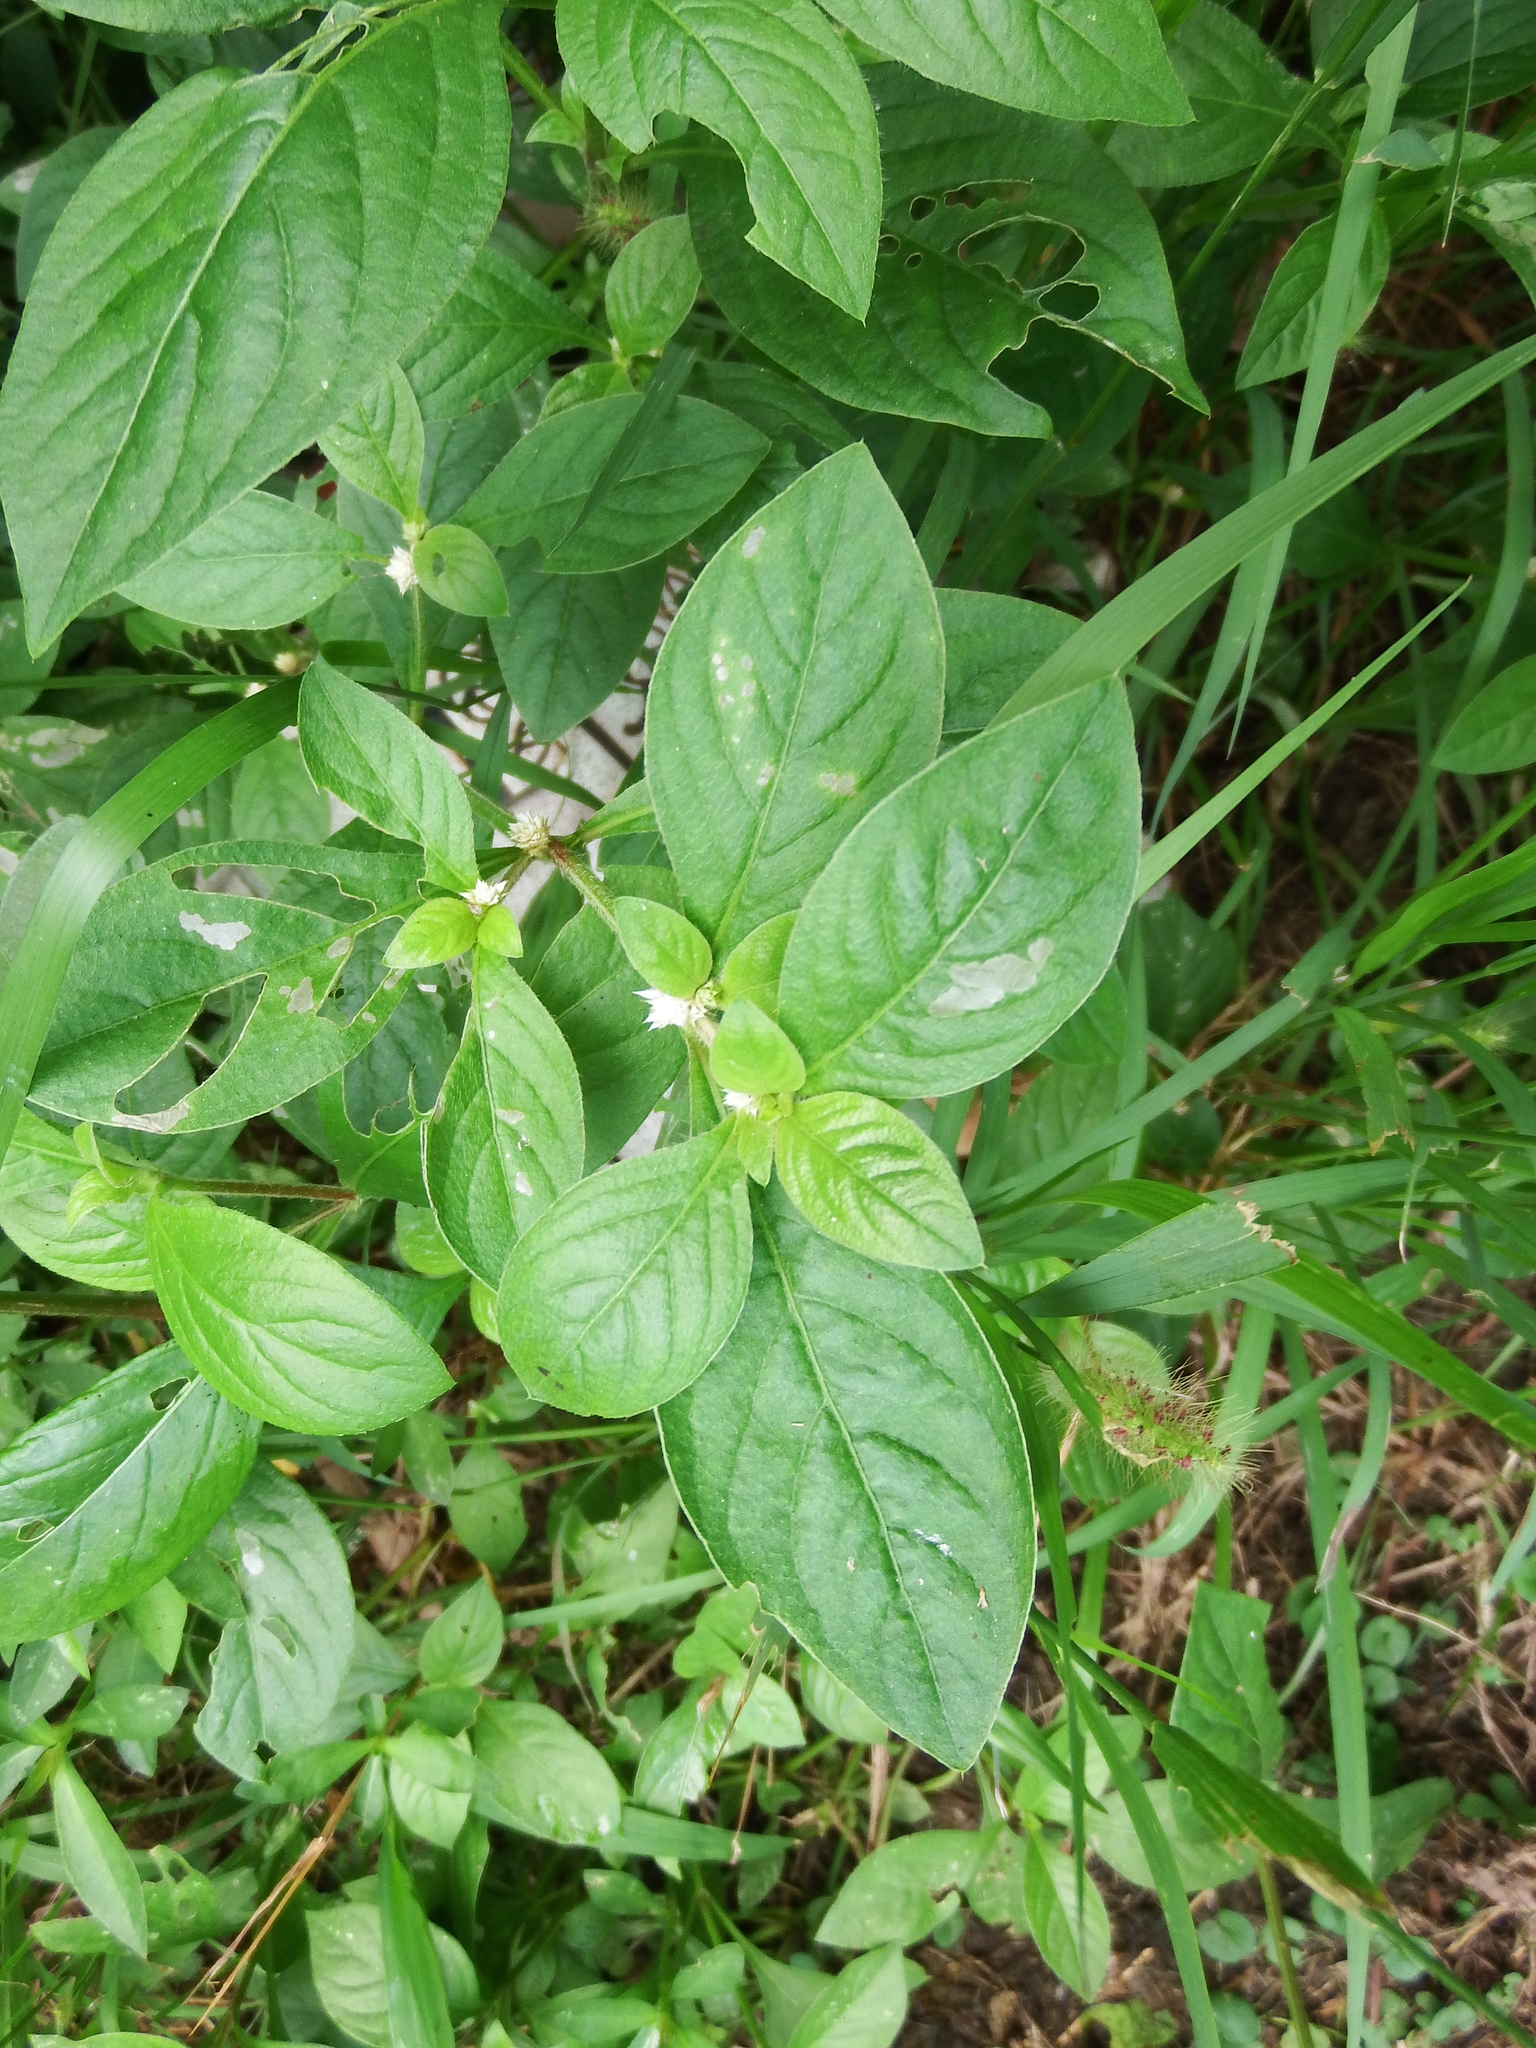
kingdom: Plantae
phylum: Tracheophyta
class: Magnoliopsida
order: Caryophyllales
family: Amaranthaceae
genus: Alternanthera
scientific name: Alternanthera bettzickiana
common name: Calico-plant
